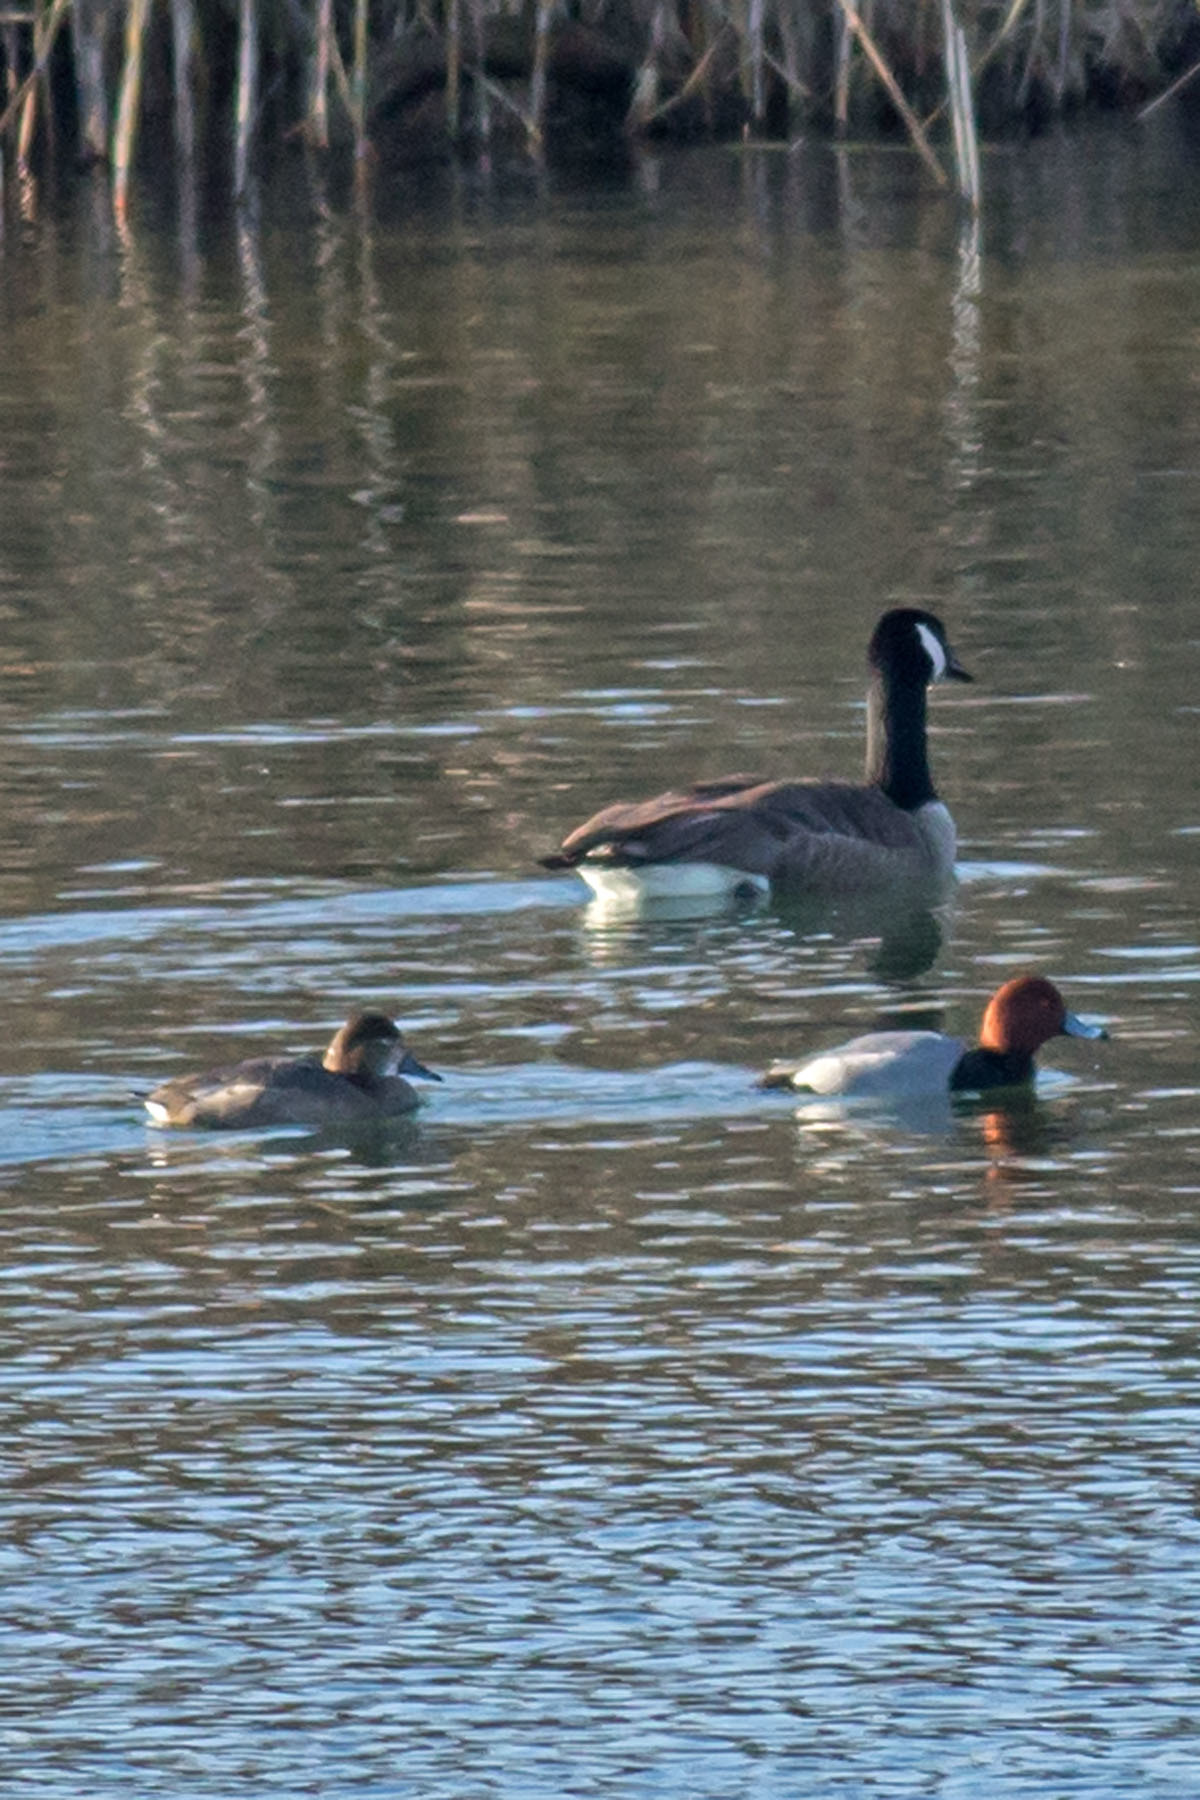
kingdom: Animalia
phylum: Chordata
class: Aves
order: Anseriformes
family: Anatidae
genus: Aythya
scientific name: Aythya americana
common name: Redhead
